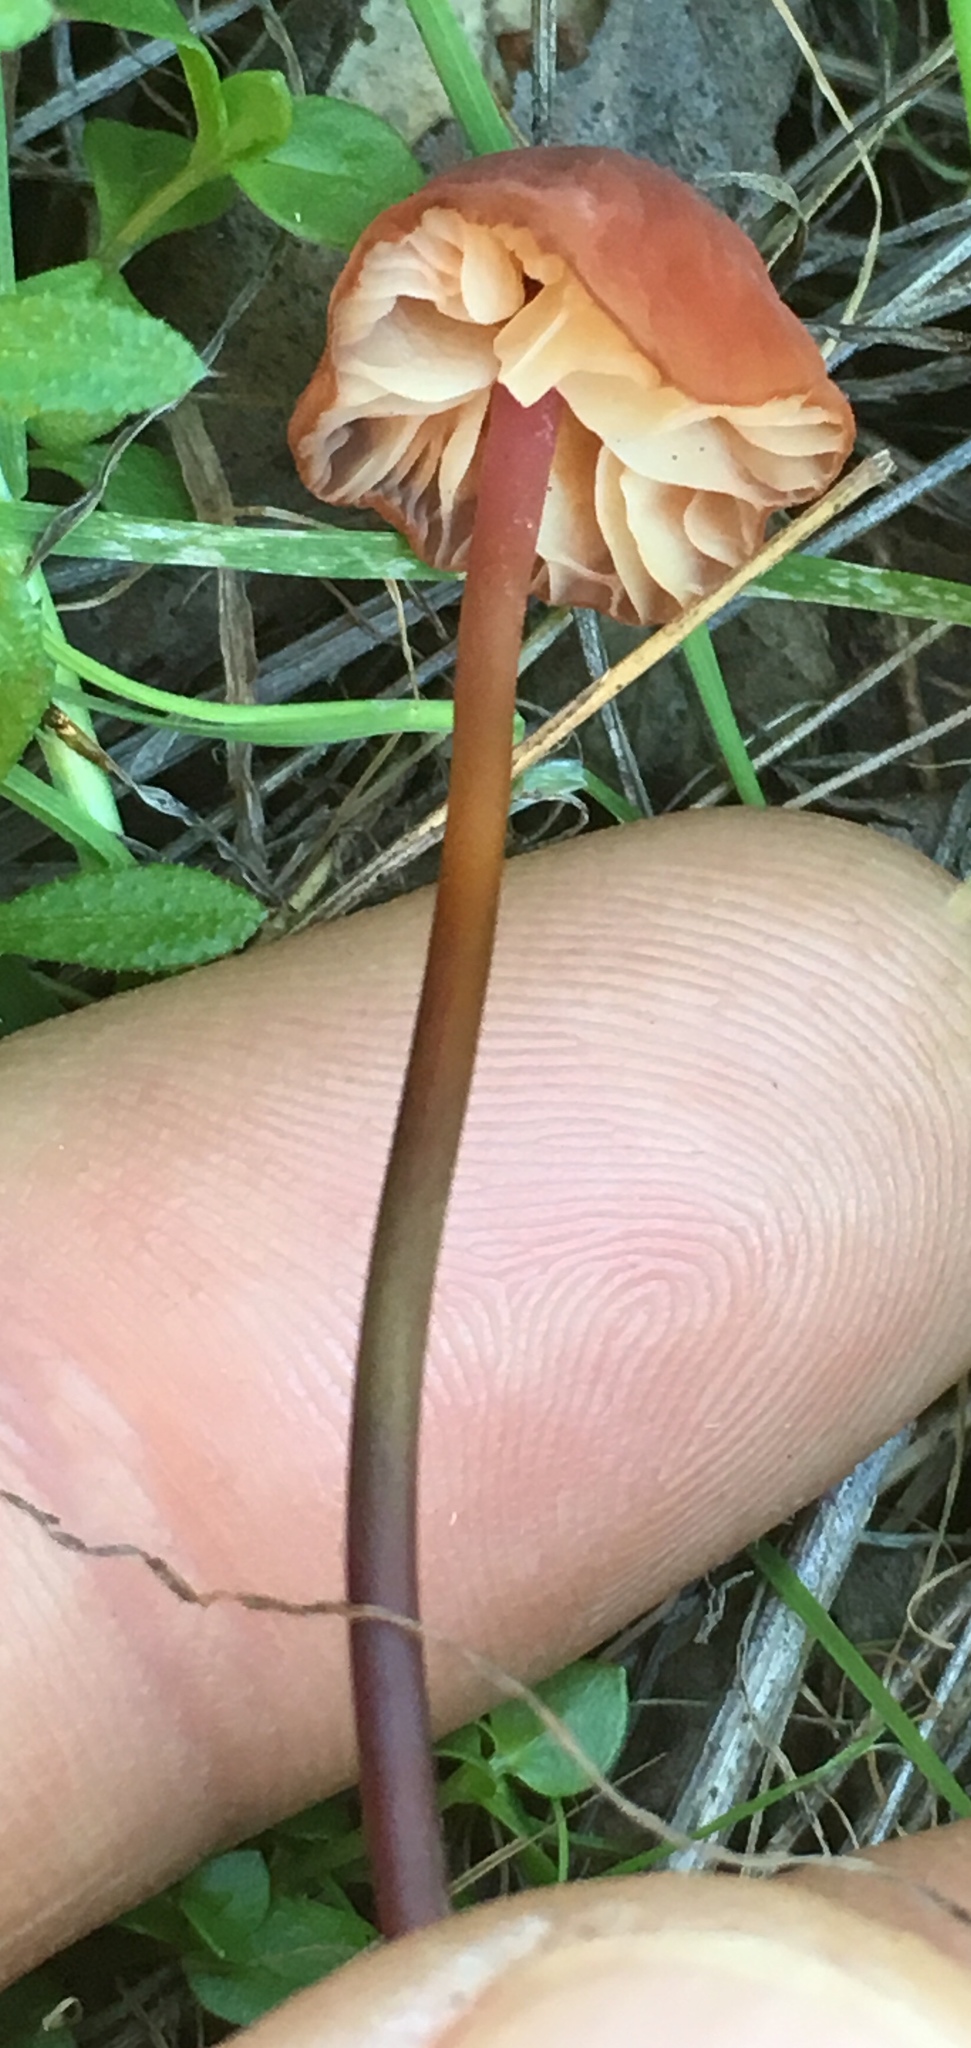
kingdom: Fungi
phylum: Basidiomycota
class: Agaricomycetes
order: Agaricales
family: Marasmiaceae
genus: Marasmius
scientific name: Marasmius plicatulus
